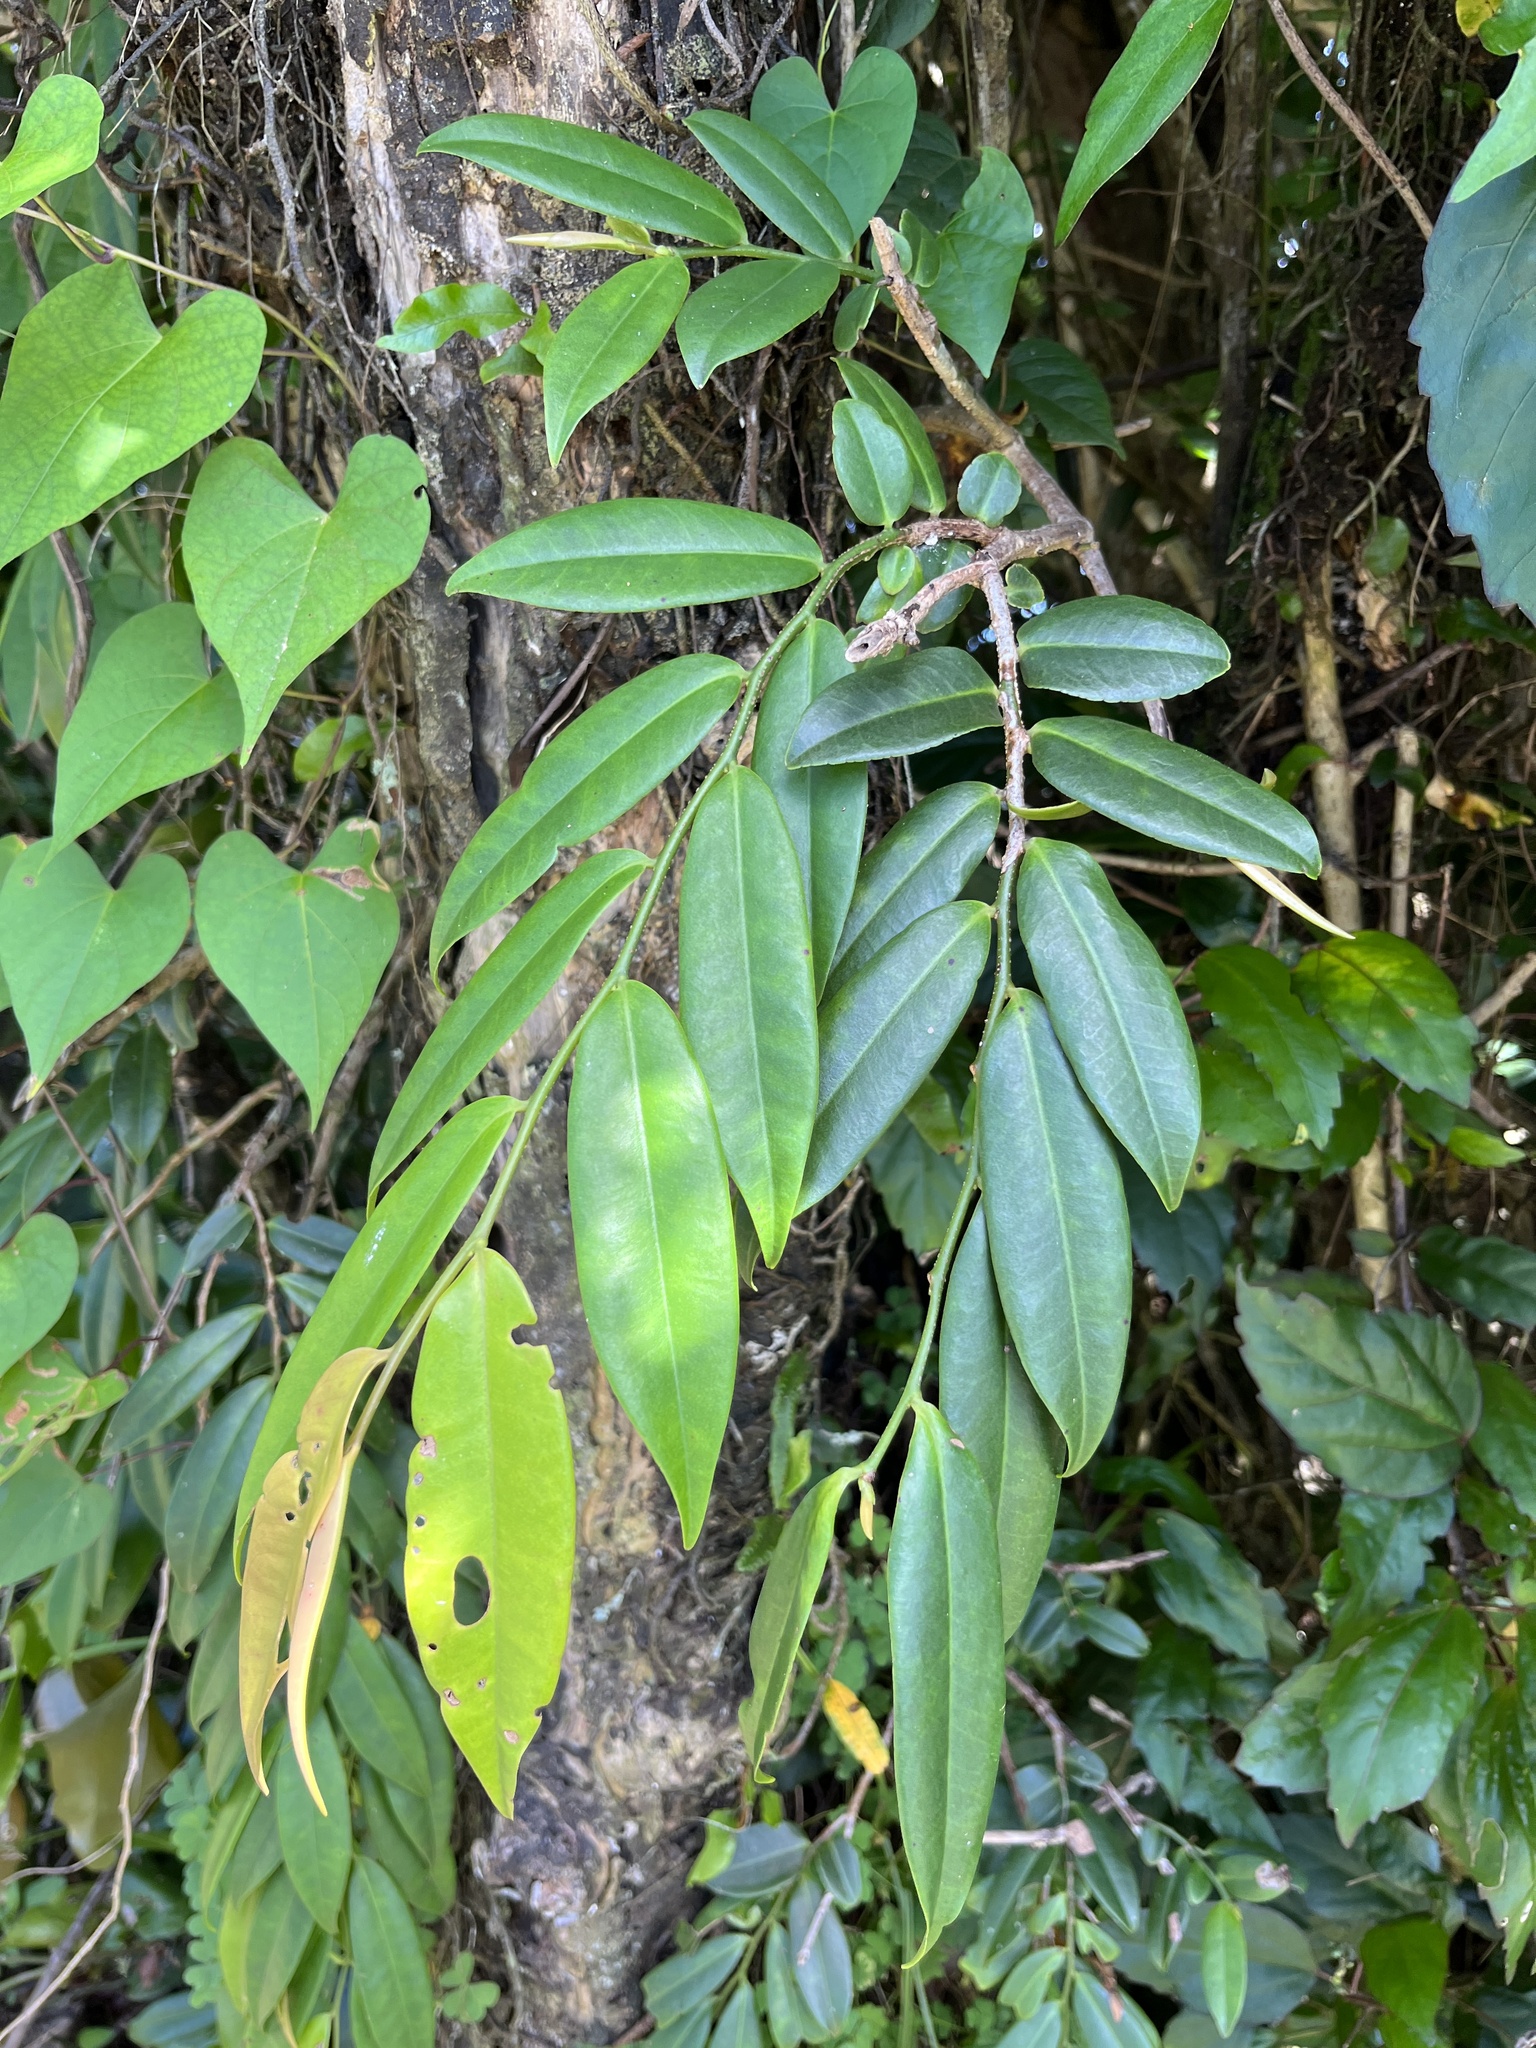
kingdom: Plantae
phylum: Tracheophyta
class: Magnoliopsida
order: Ericales
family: Marcgraviaceae
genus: Marcgravia
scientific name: Marcgravia rectiflora
